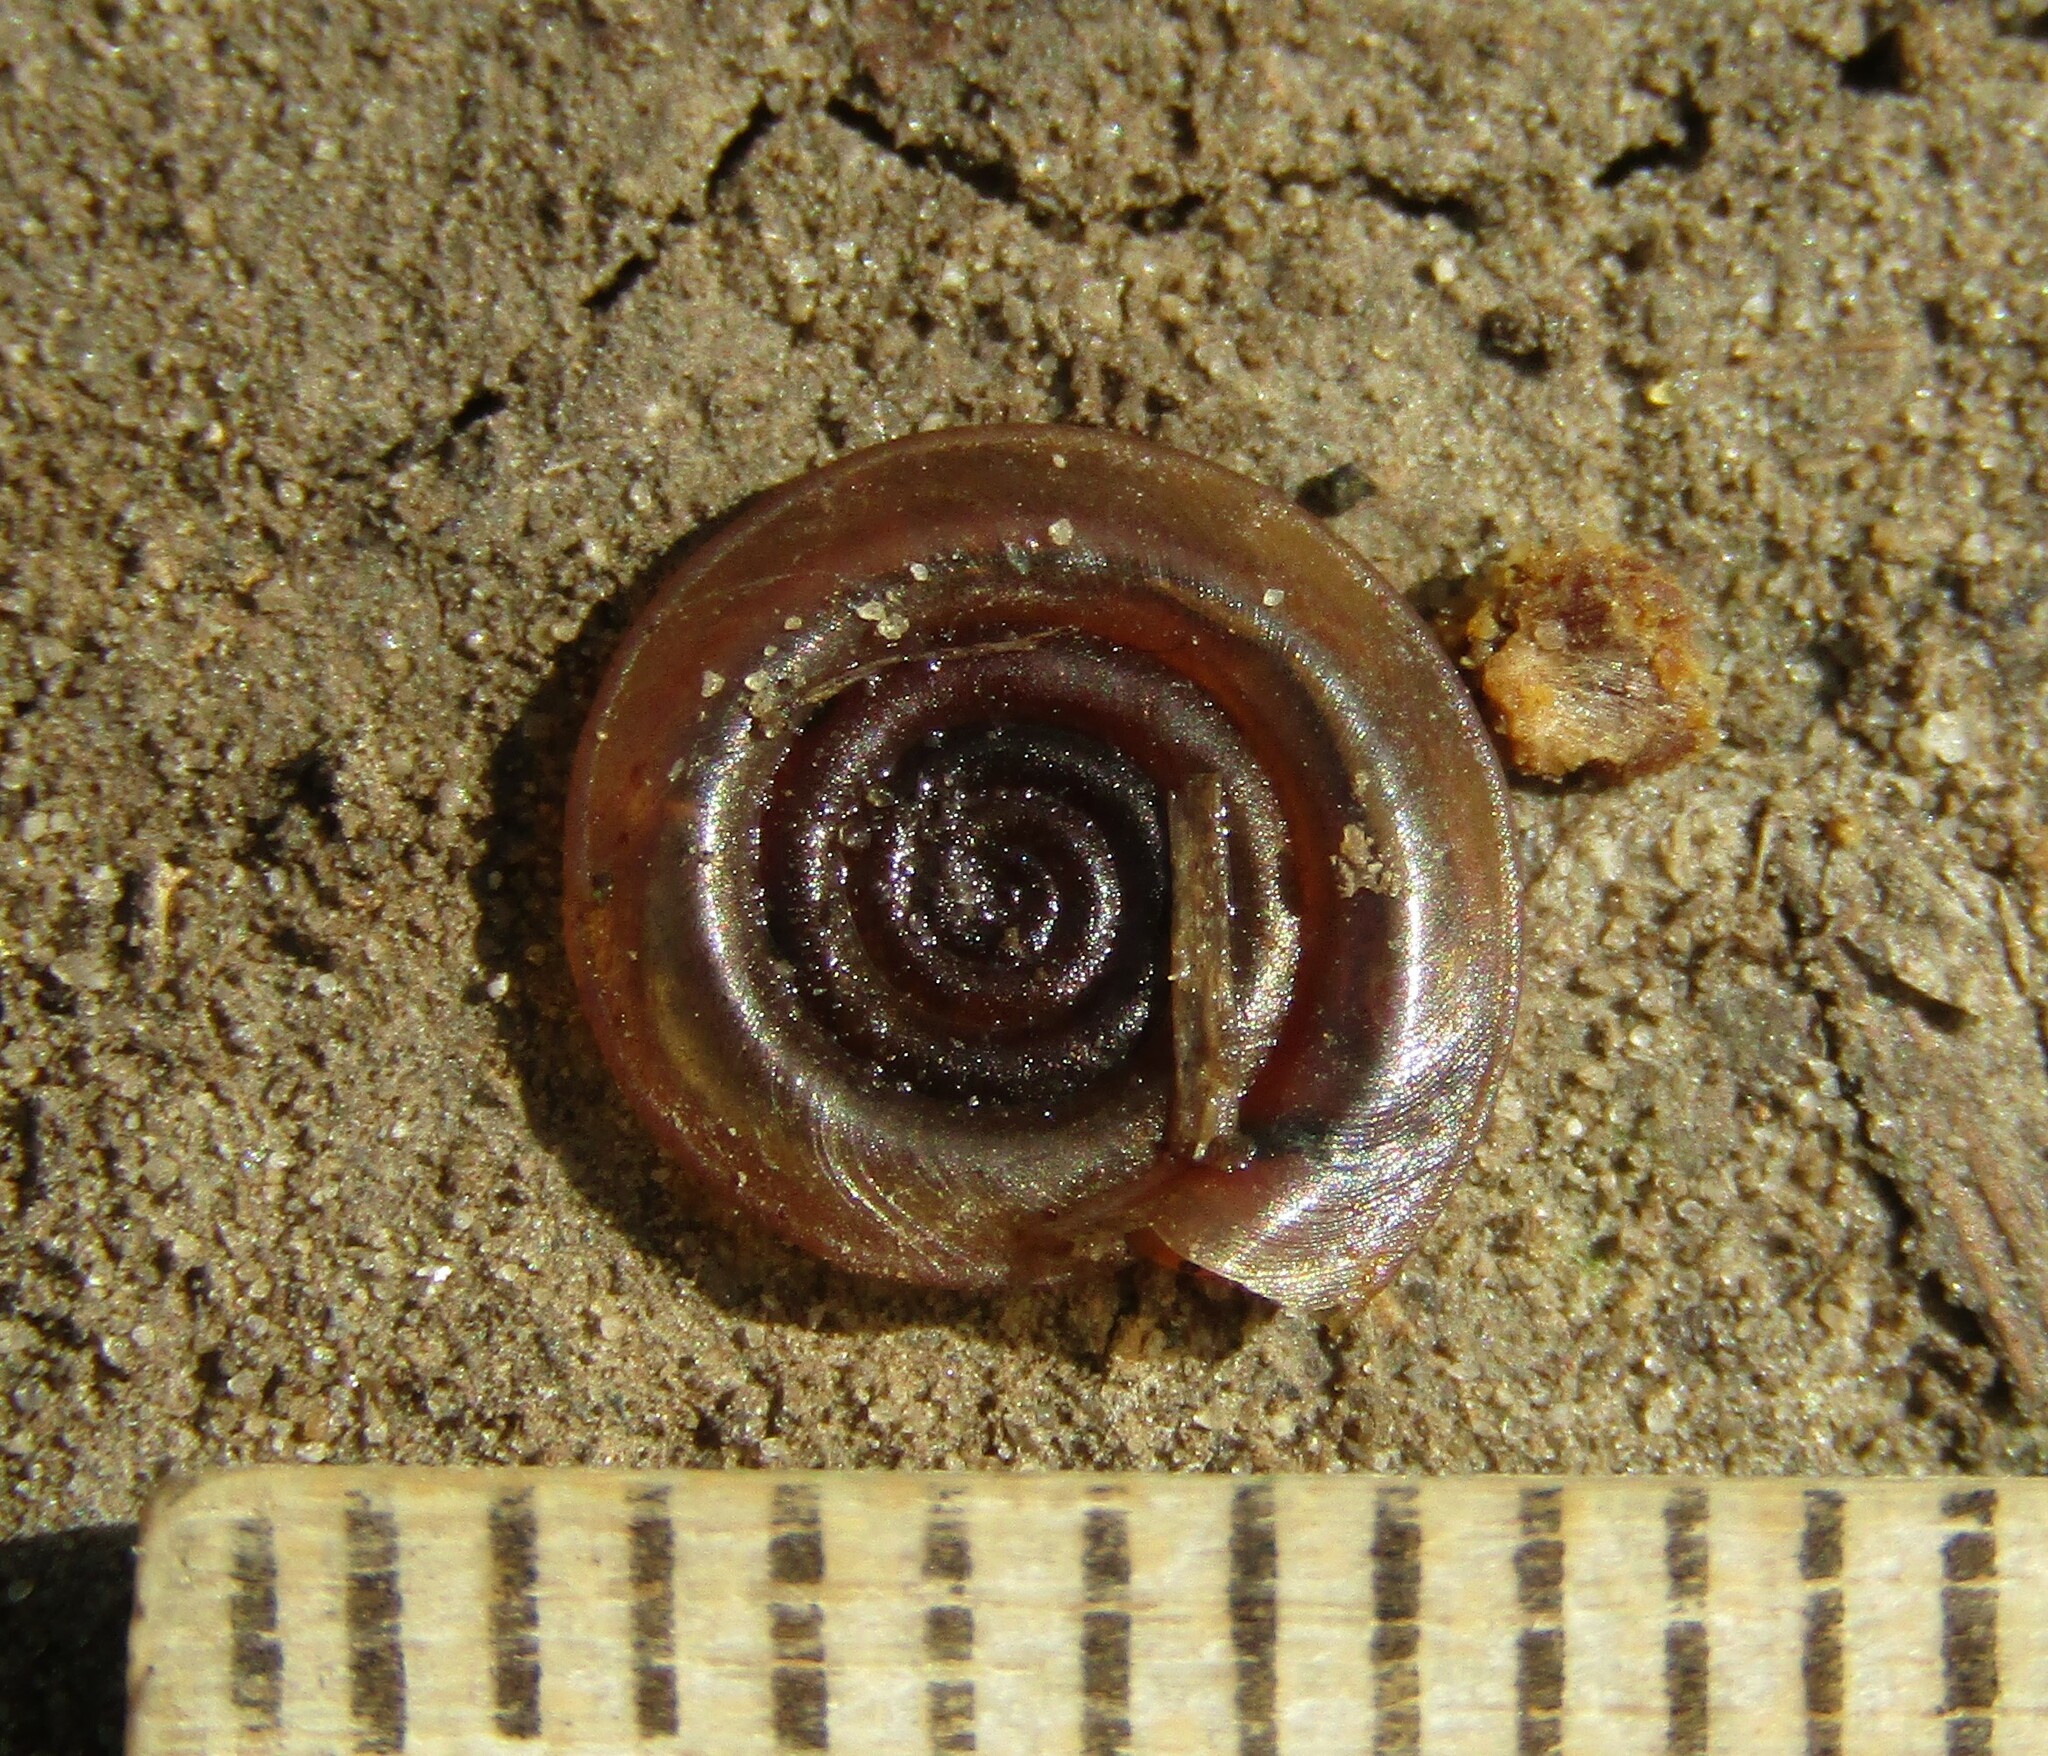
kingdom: Animalia
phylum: Mollusca
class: Gastropoda
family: Planorbidae
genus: Anisus
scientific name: Anisus vortex
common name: Whirlpool ram's horn snail
